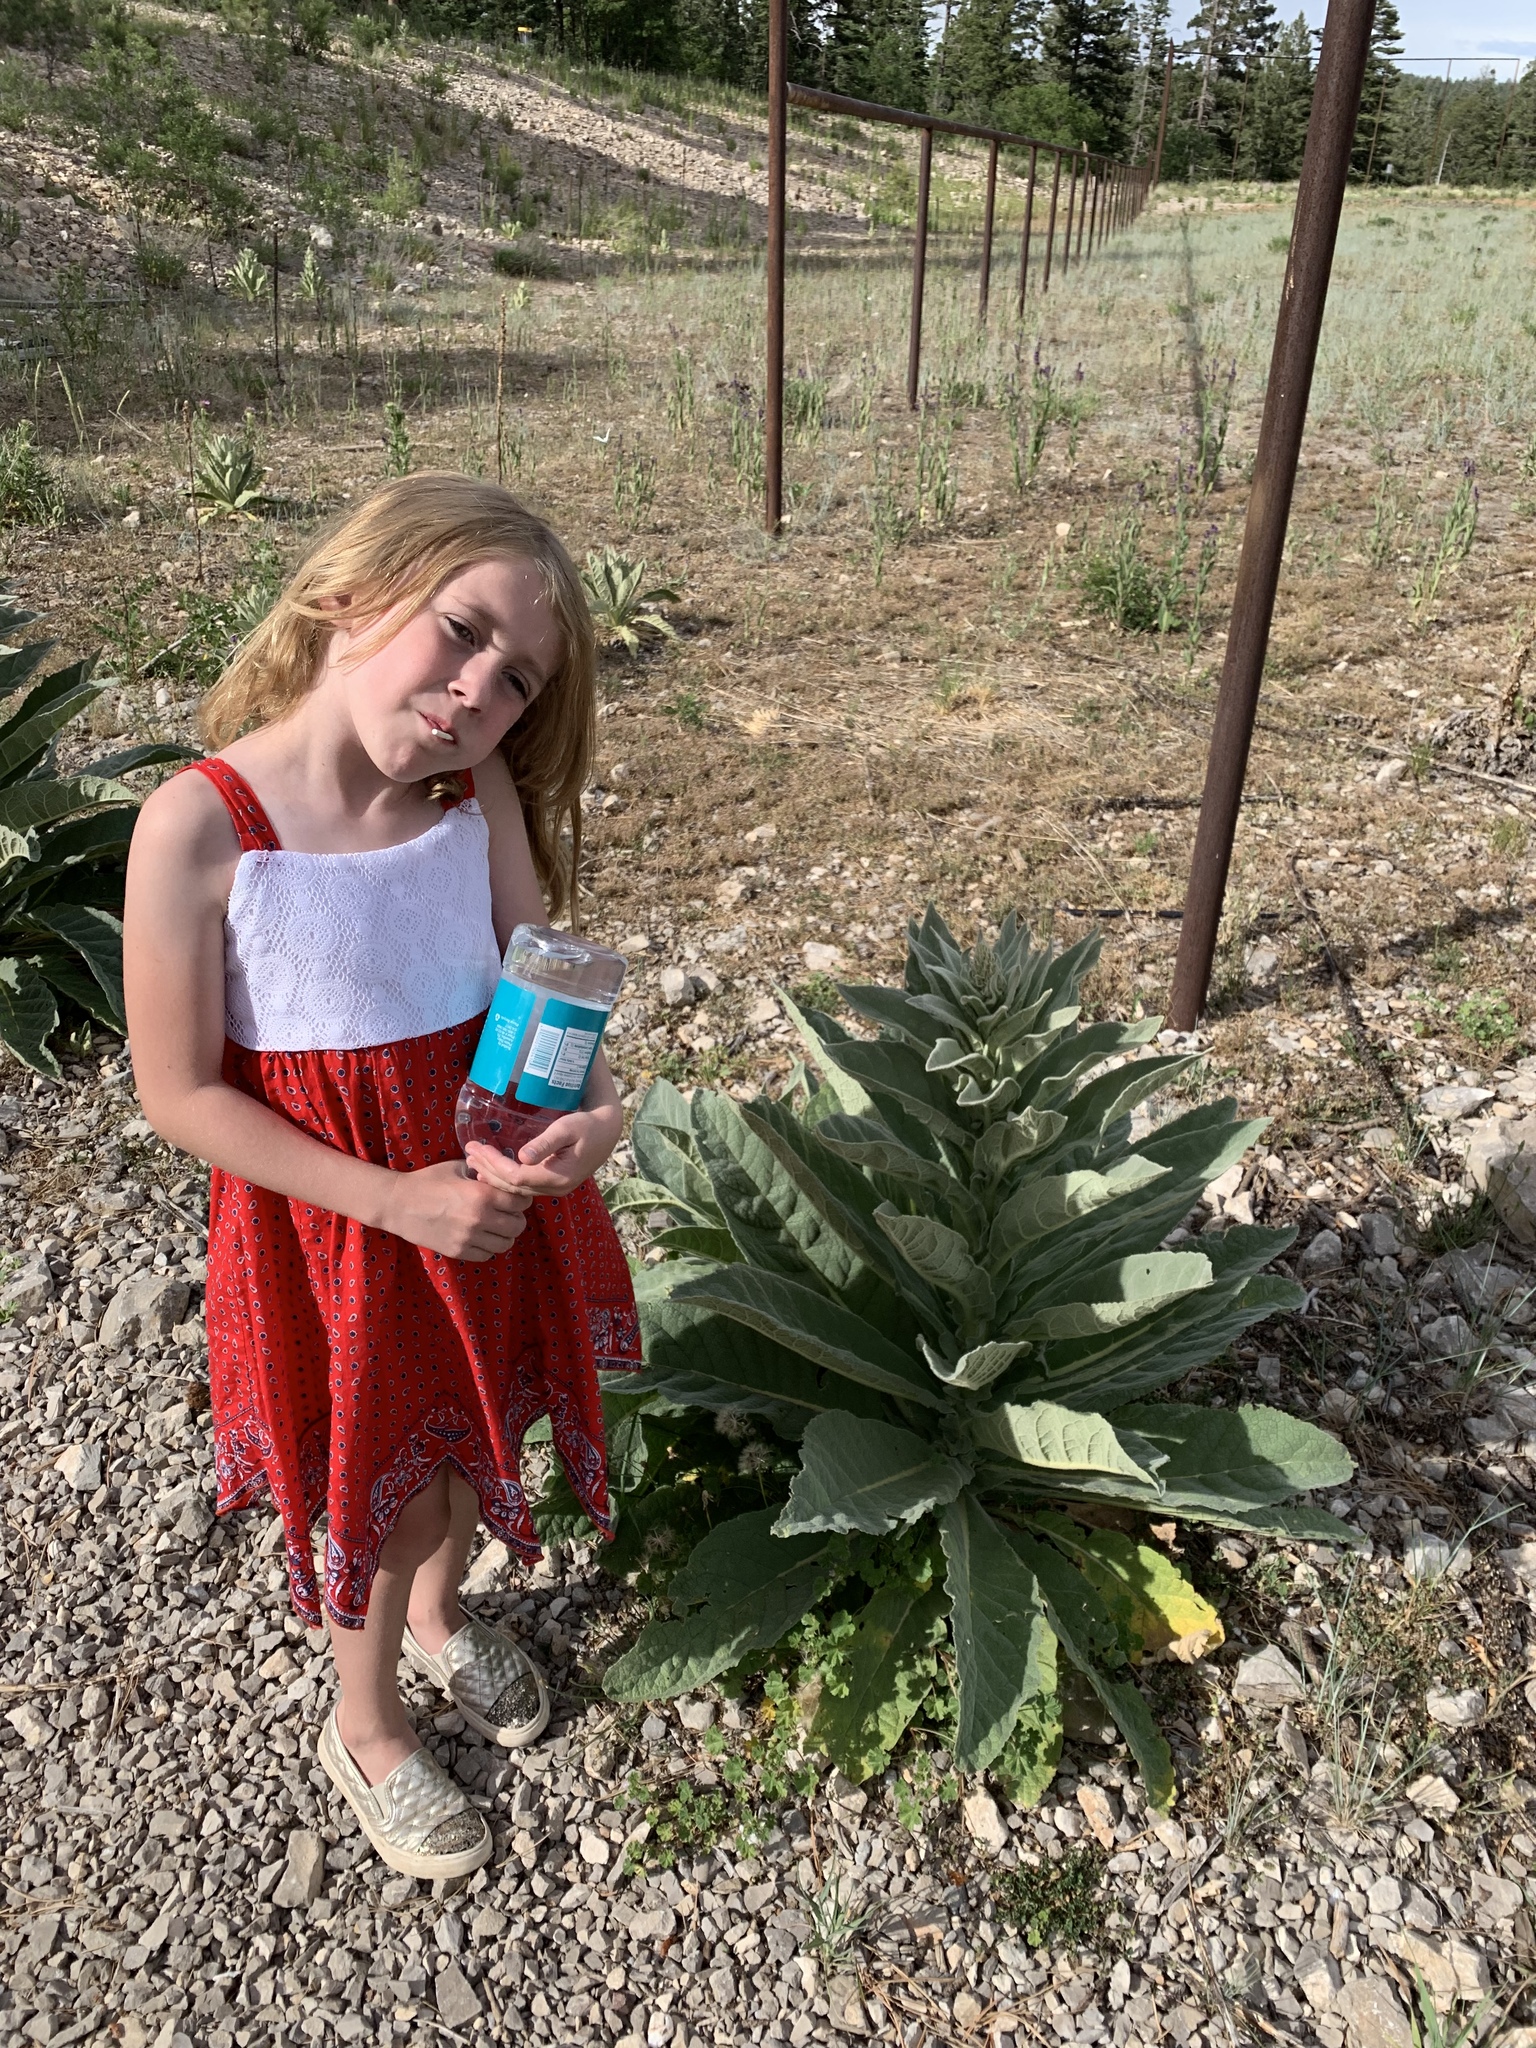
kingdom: Plantae
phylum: Tracheophyta
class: Magnoliopsida
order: Lamiales
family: Scrophulariaceae
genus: Verbascum
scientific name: Verbascum thapsus
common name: Common mullein
